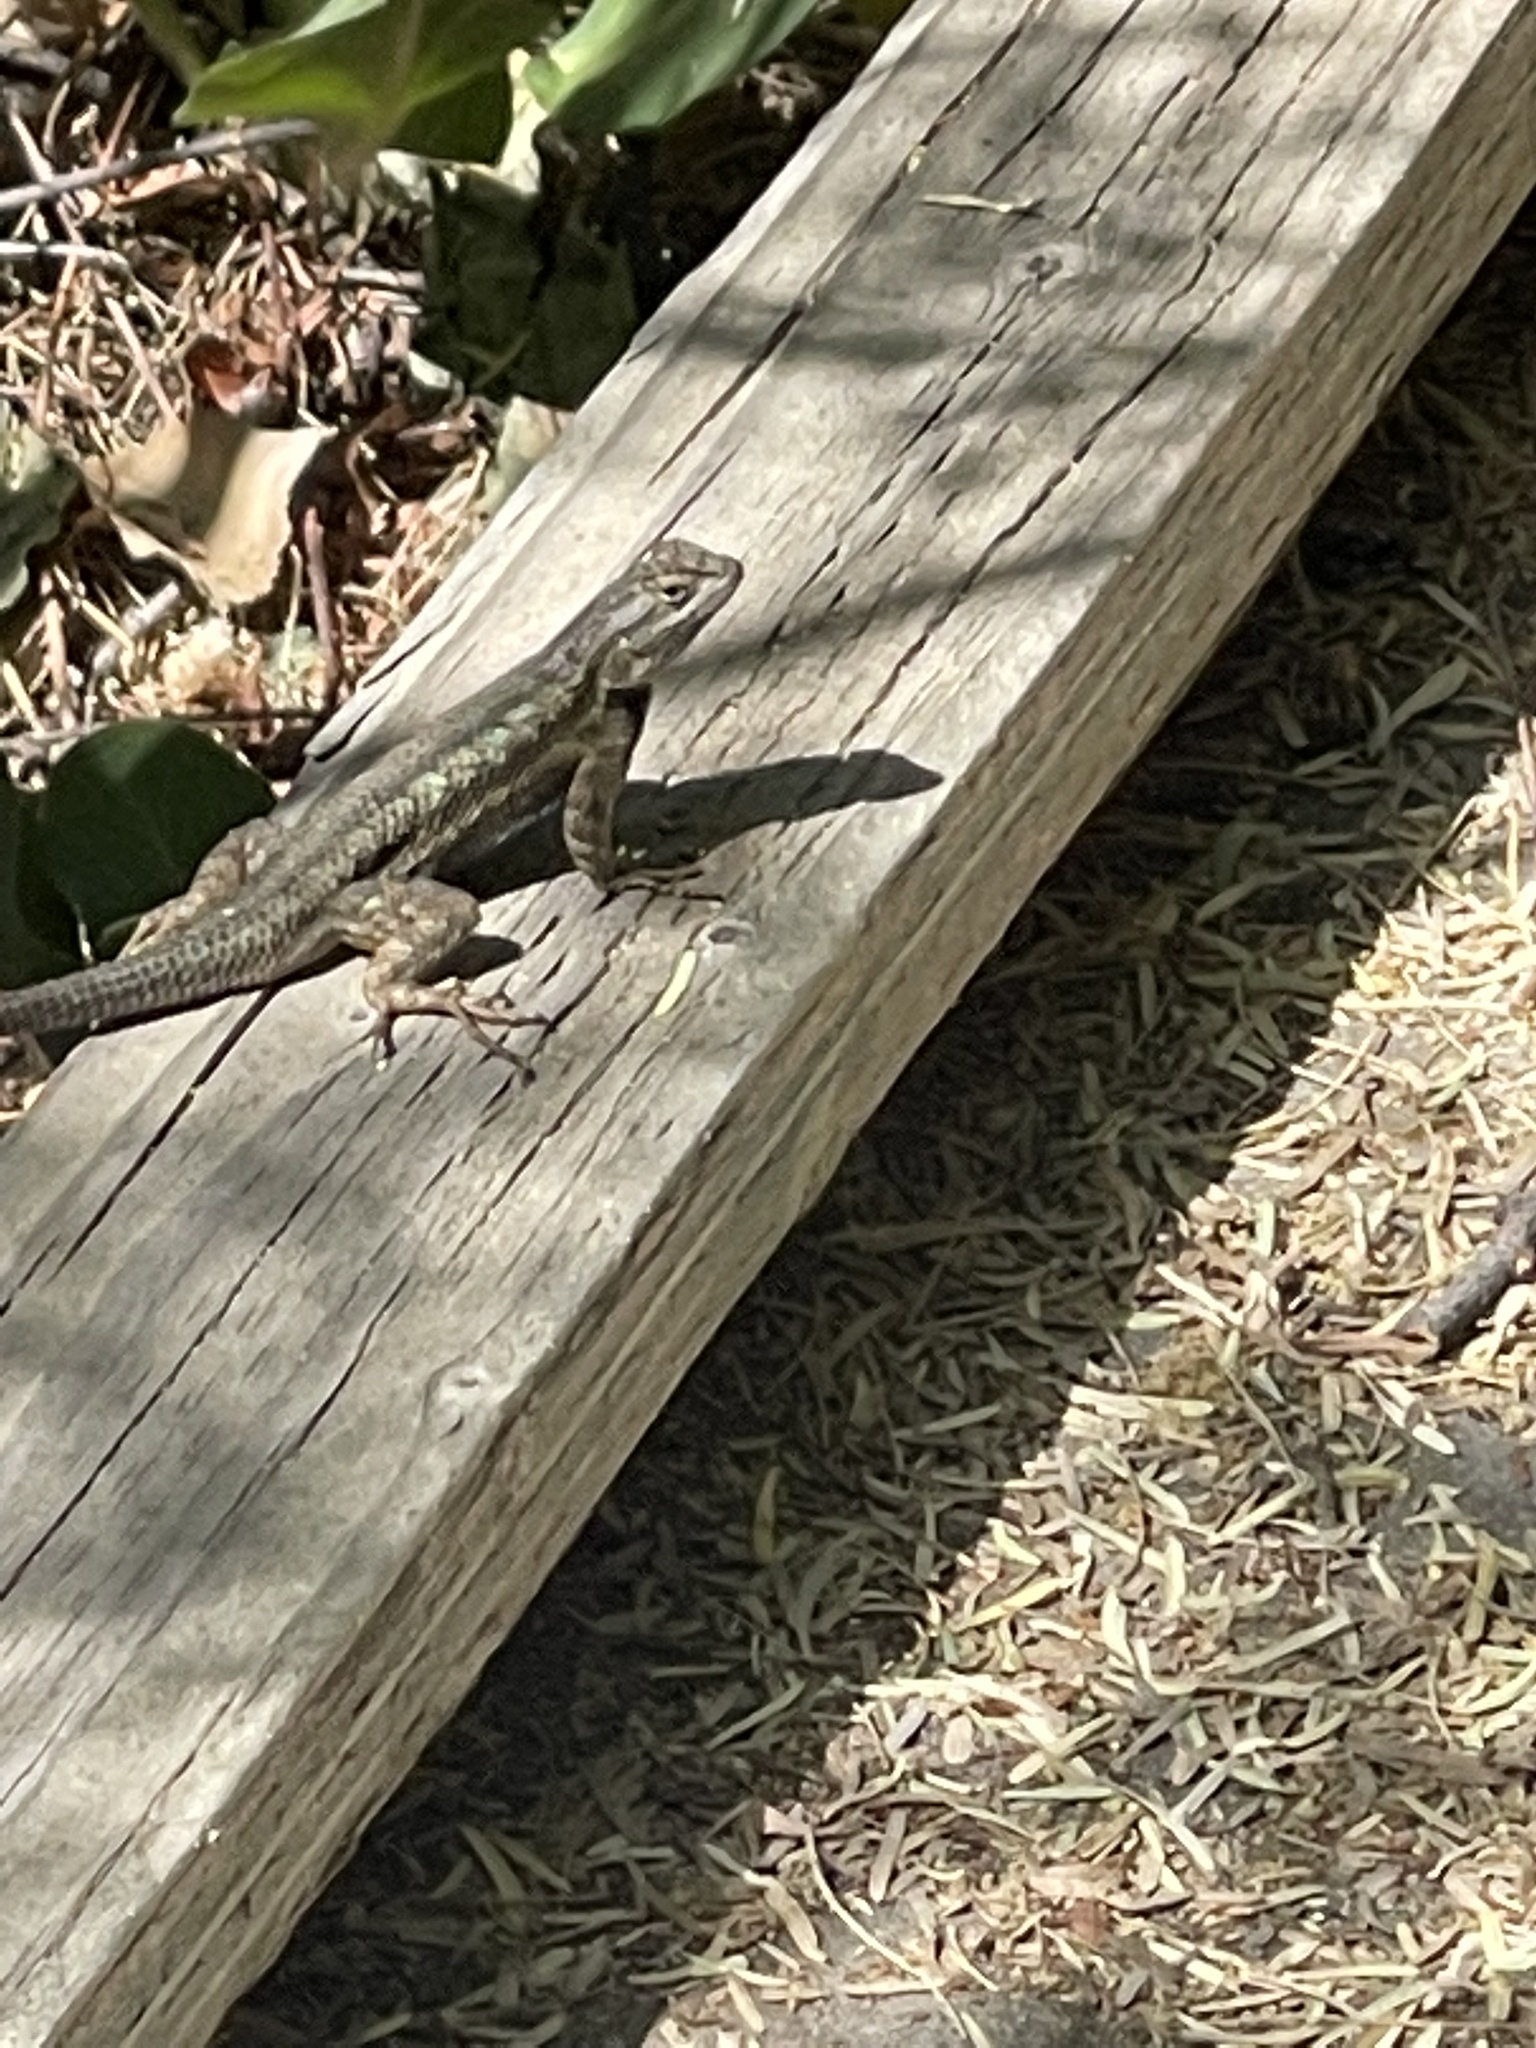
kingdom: Animalia
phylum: Chordata
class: Squamata
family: Phrynosomatidae
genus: Sceloporus
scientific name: Sceloporus occidentalis
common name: Western fence lizard
